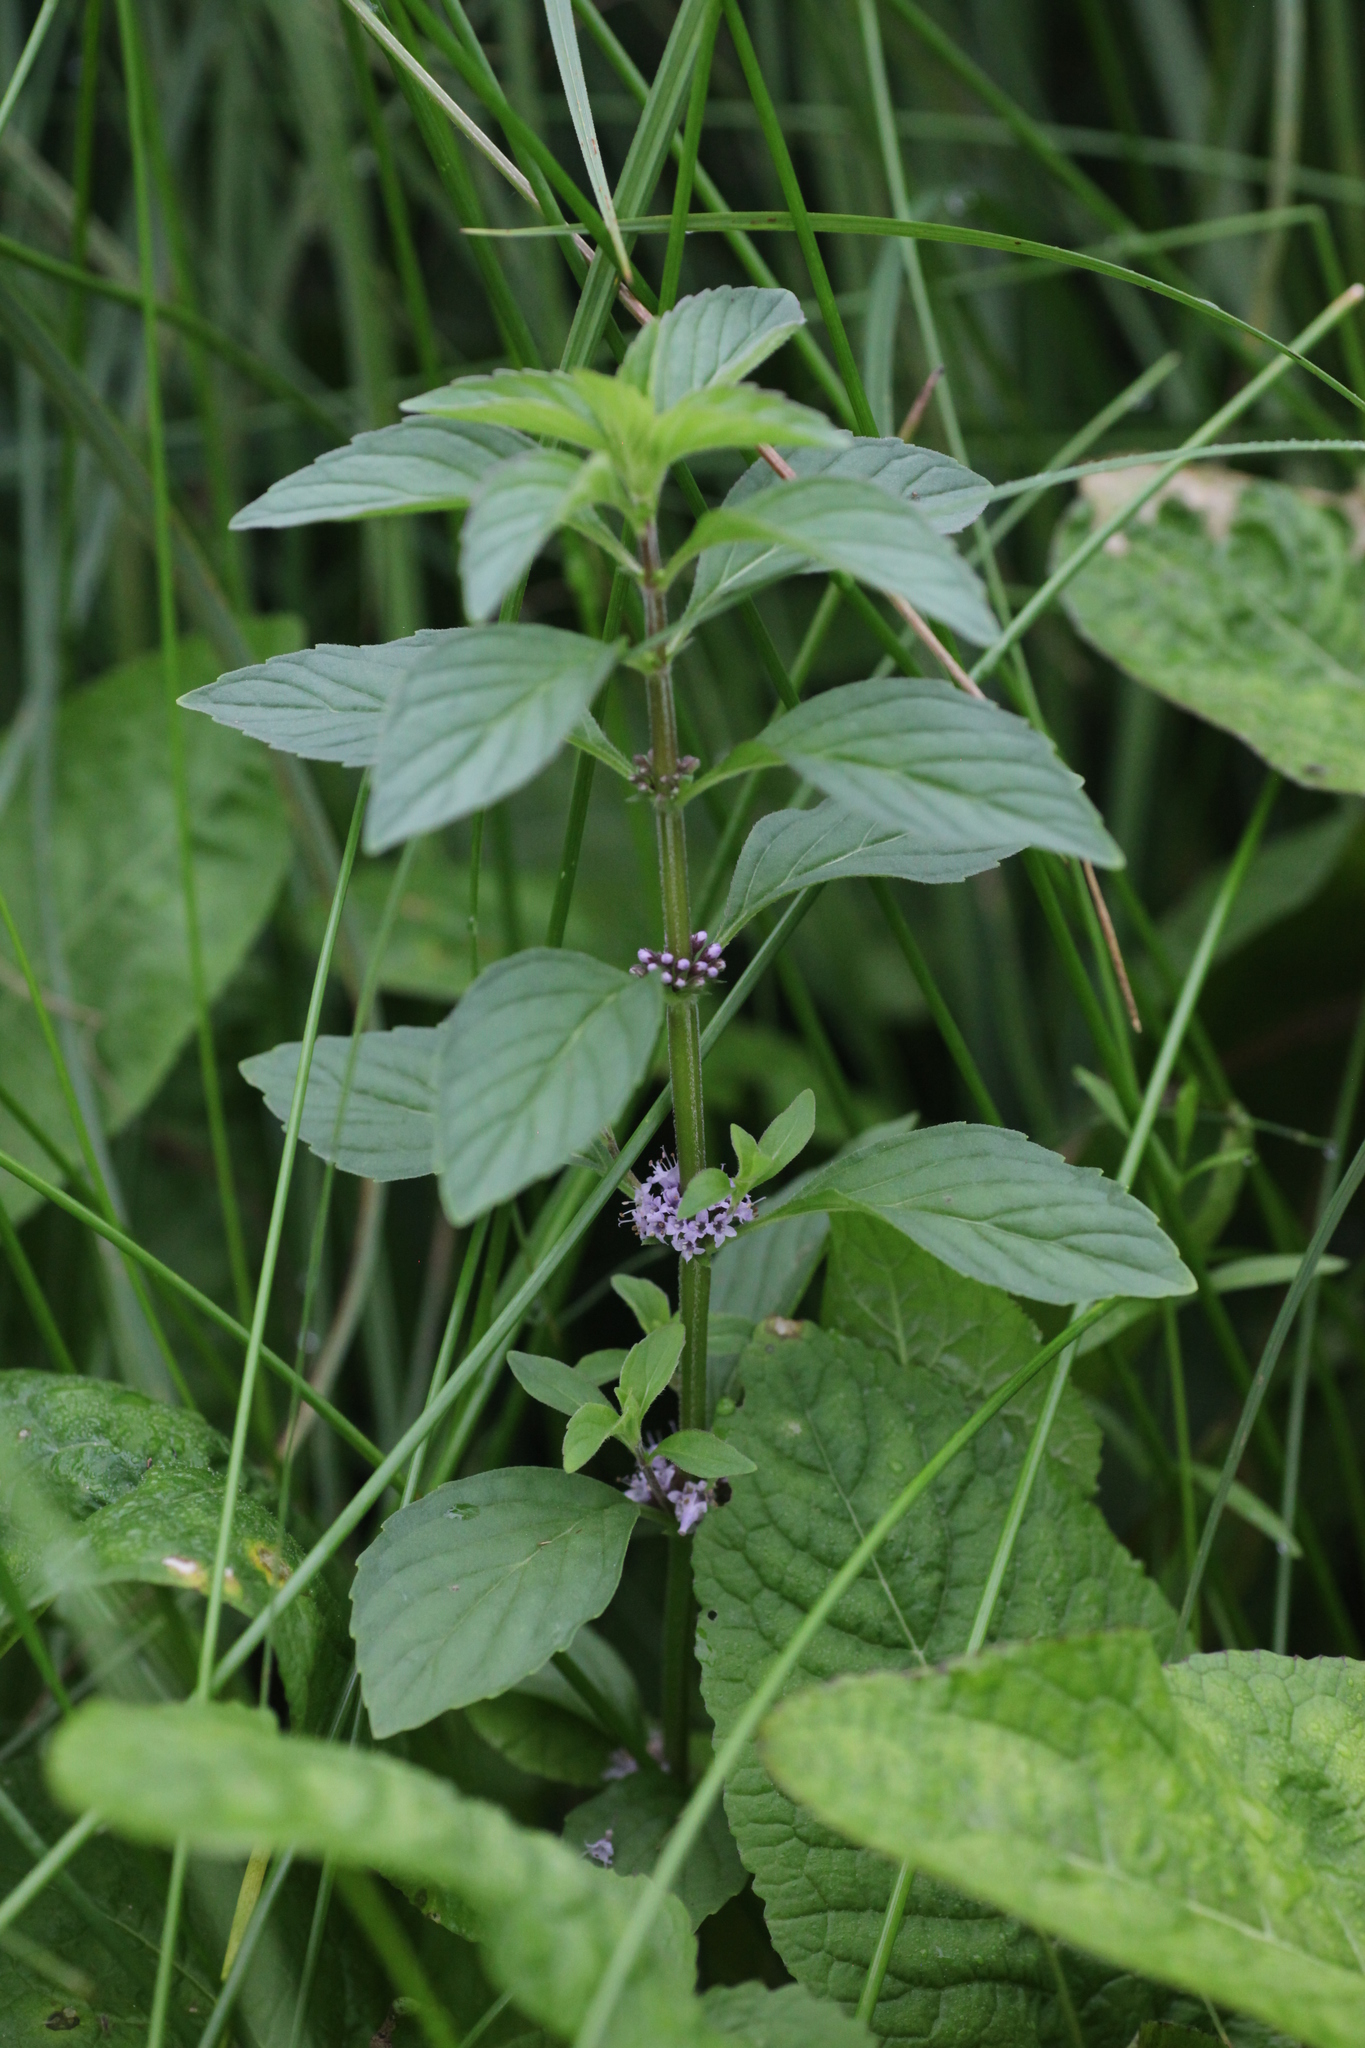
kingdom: Plantae
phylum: Tracheophyta
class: Magnoliopsida
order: Lamiales
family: Lamiaceae
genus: Mentha
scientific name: Mentha arvensis
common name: Corn mint
